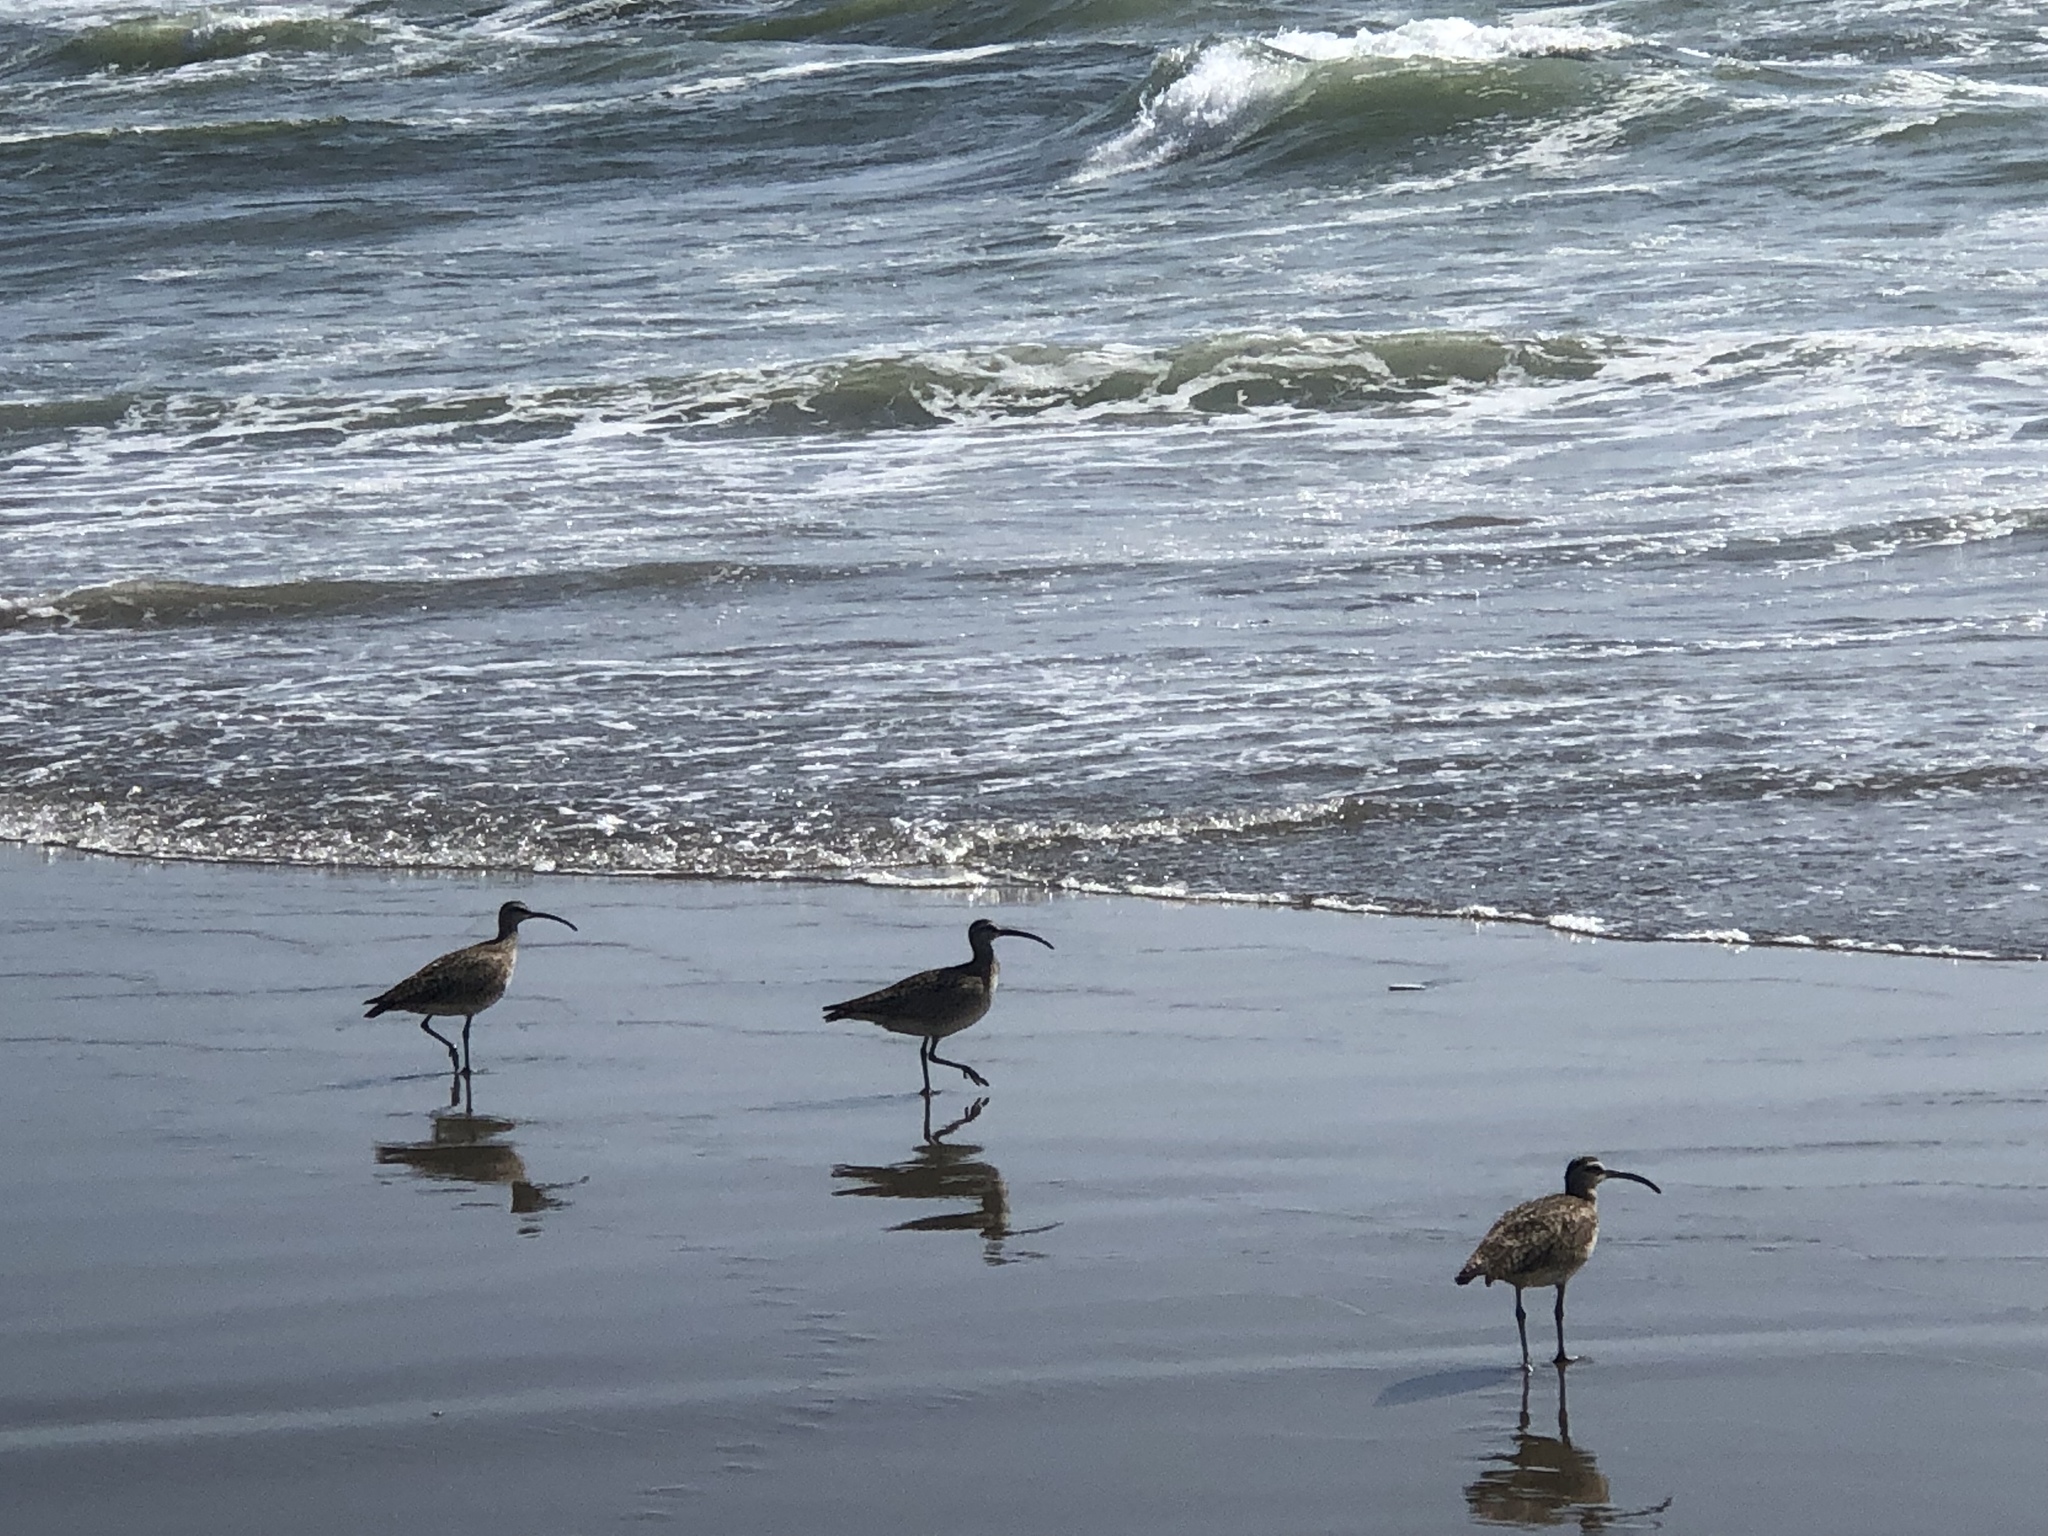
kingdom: Animalia
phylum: Chordata
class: Aves
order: Charadriiformes
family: Scolopacidae
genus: Numenius
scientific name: Numenius phaeopus
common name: Whimbrel
